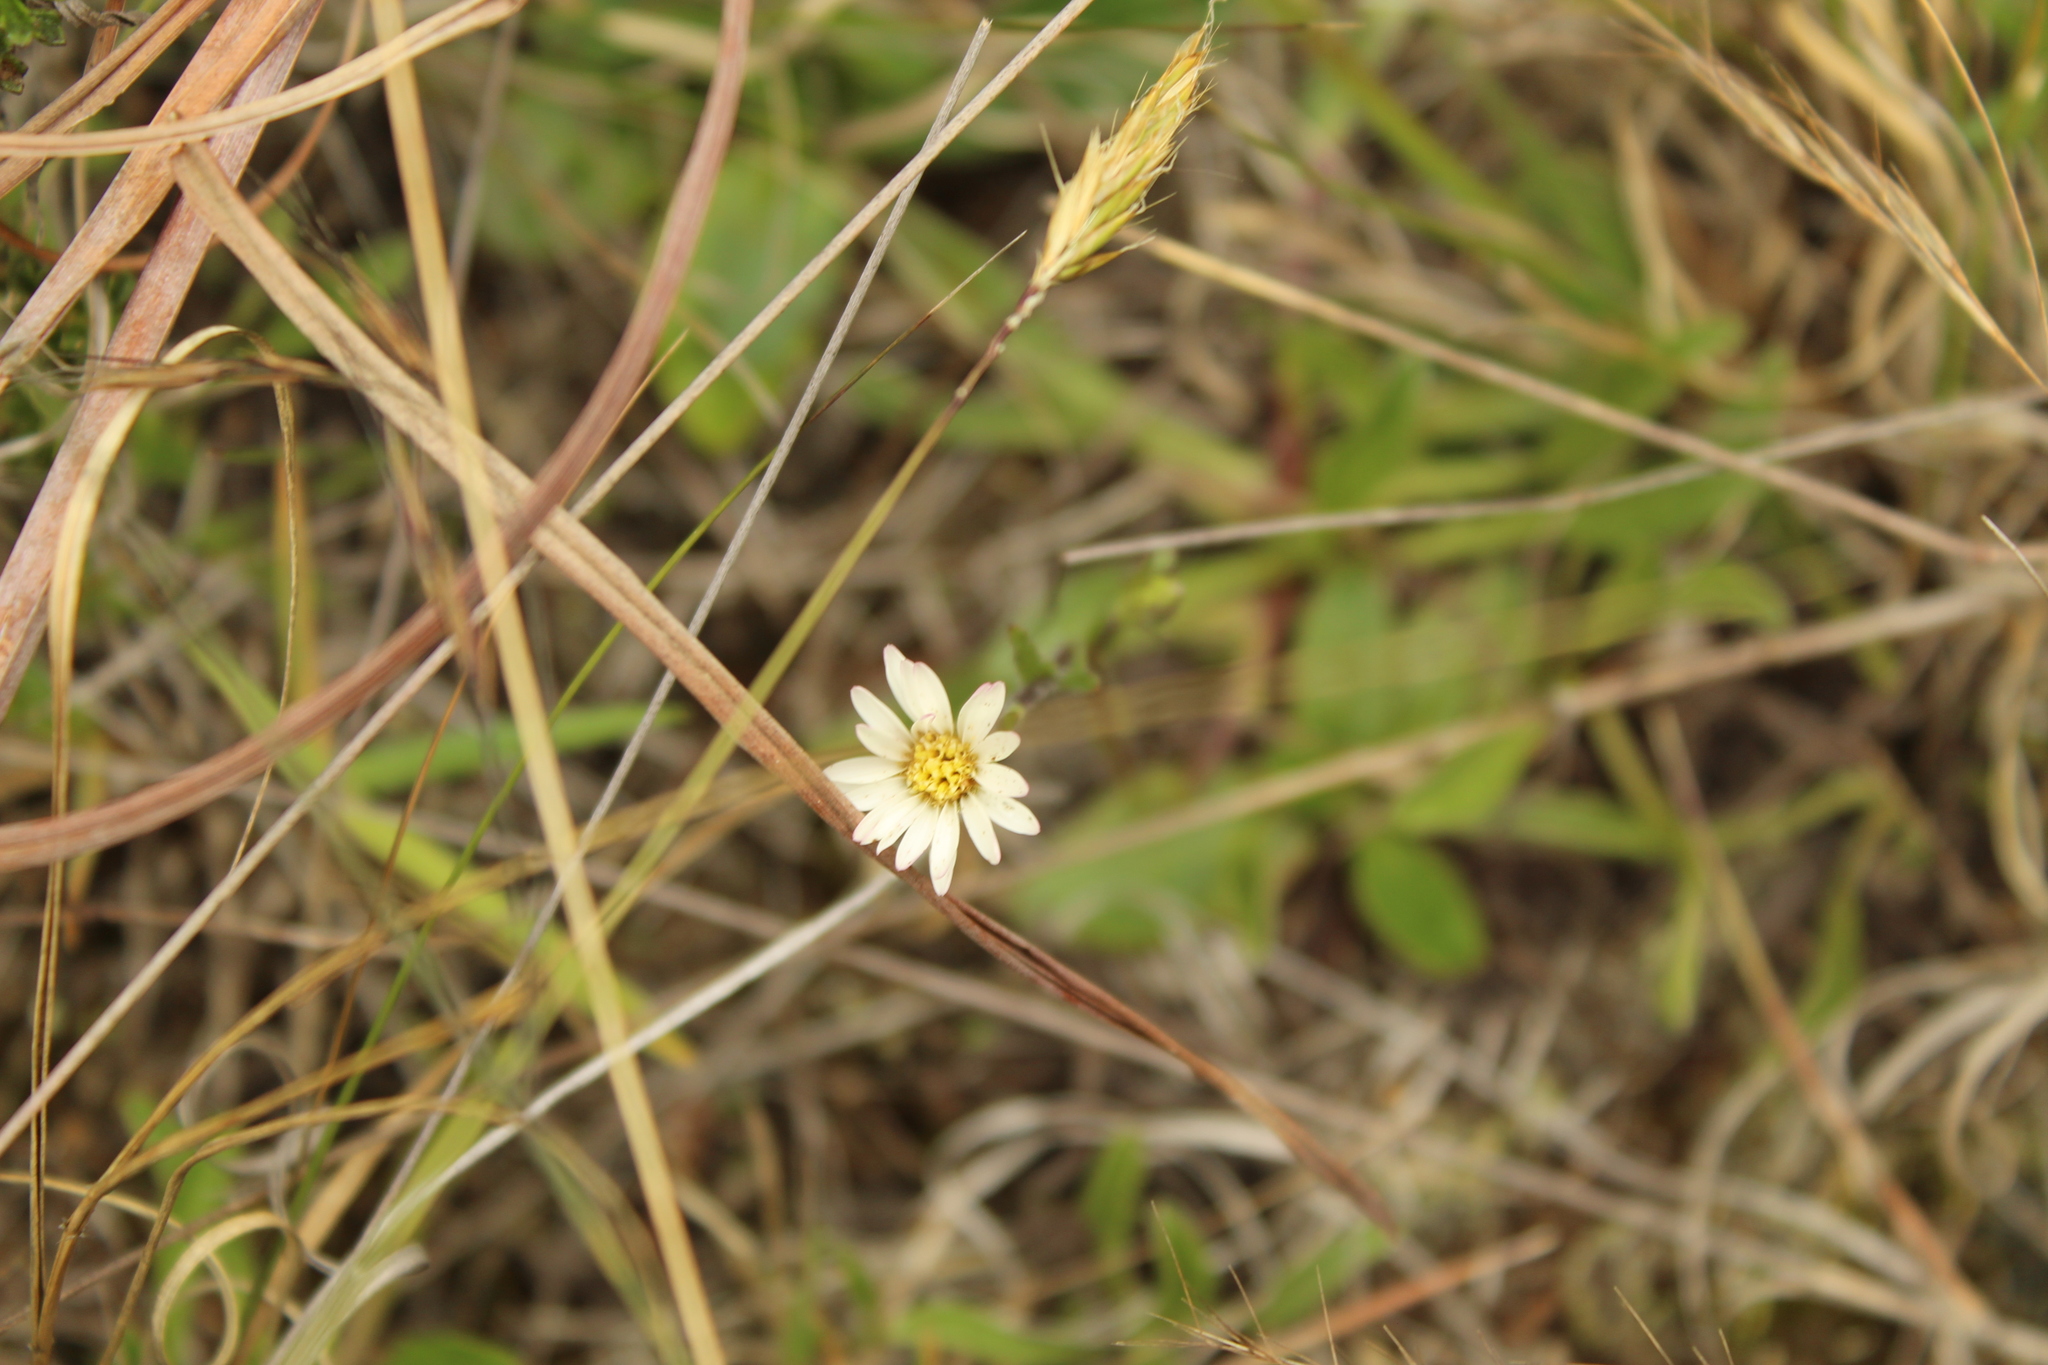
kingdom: Plantae
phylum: Tracheophyta
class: Magnoliopsida
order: Asterales
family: Asteraceae
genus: Noticastrum
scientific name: Noticastrum marginatum
